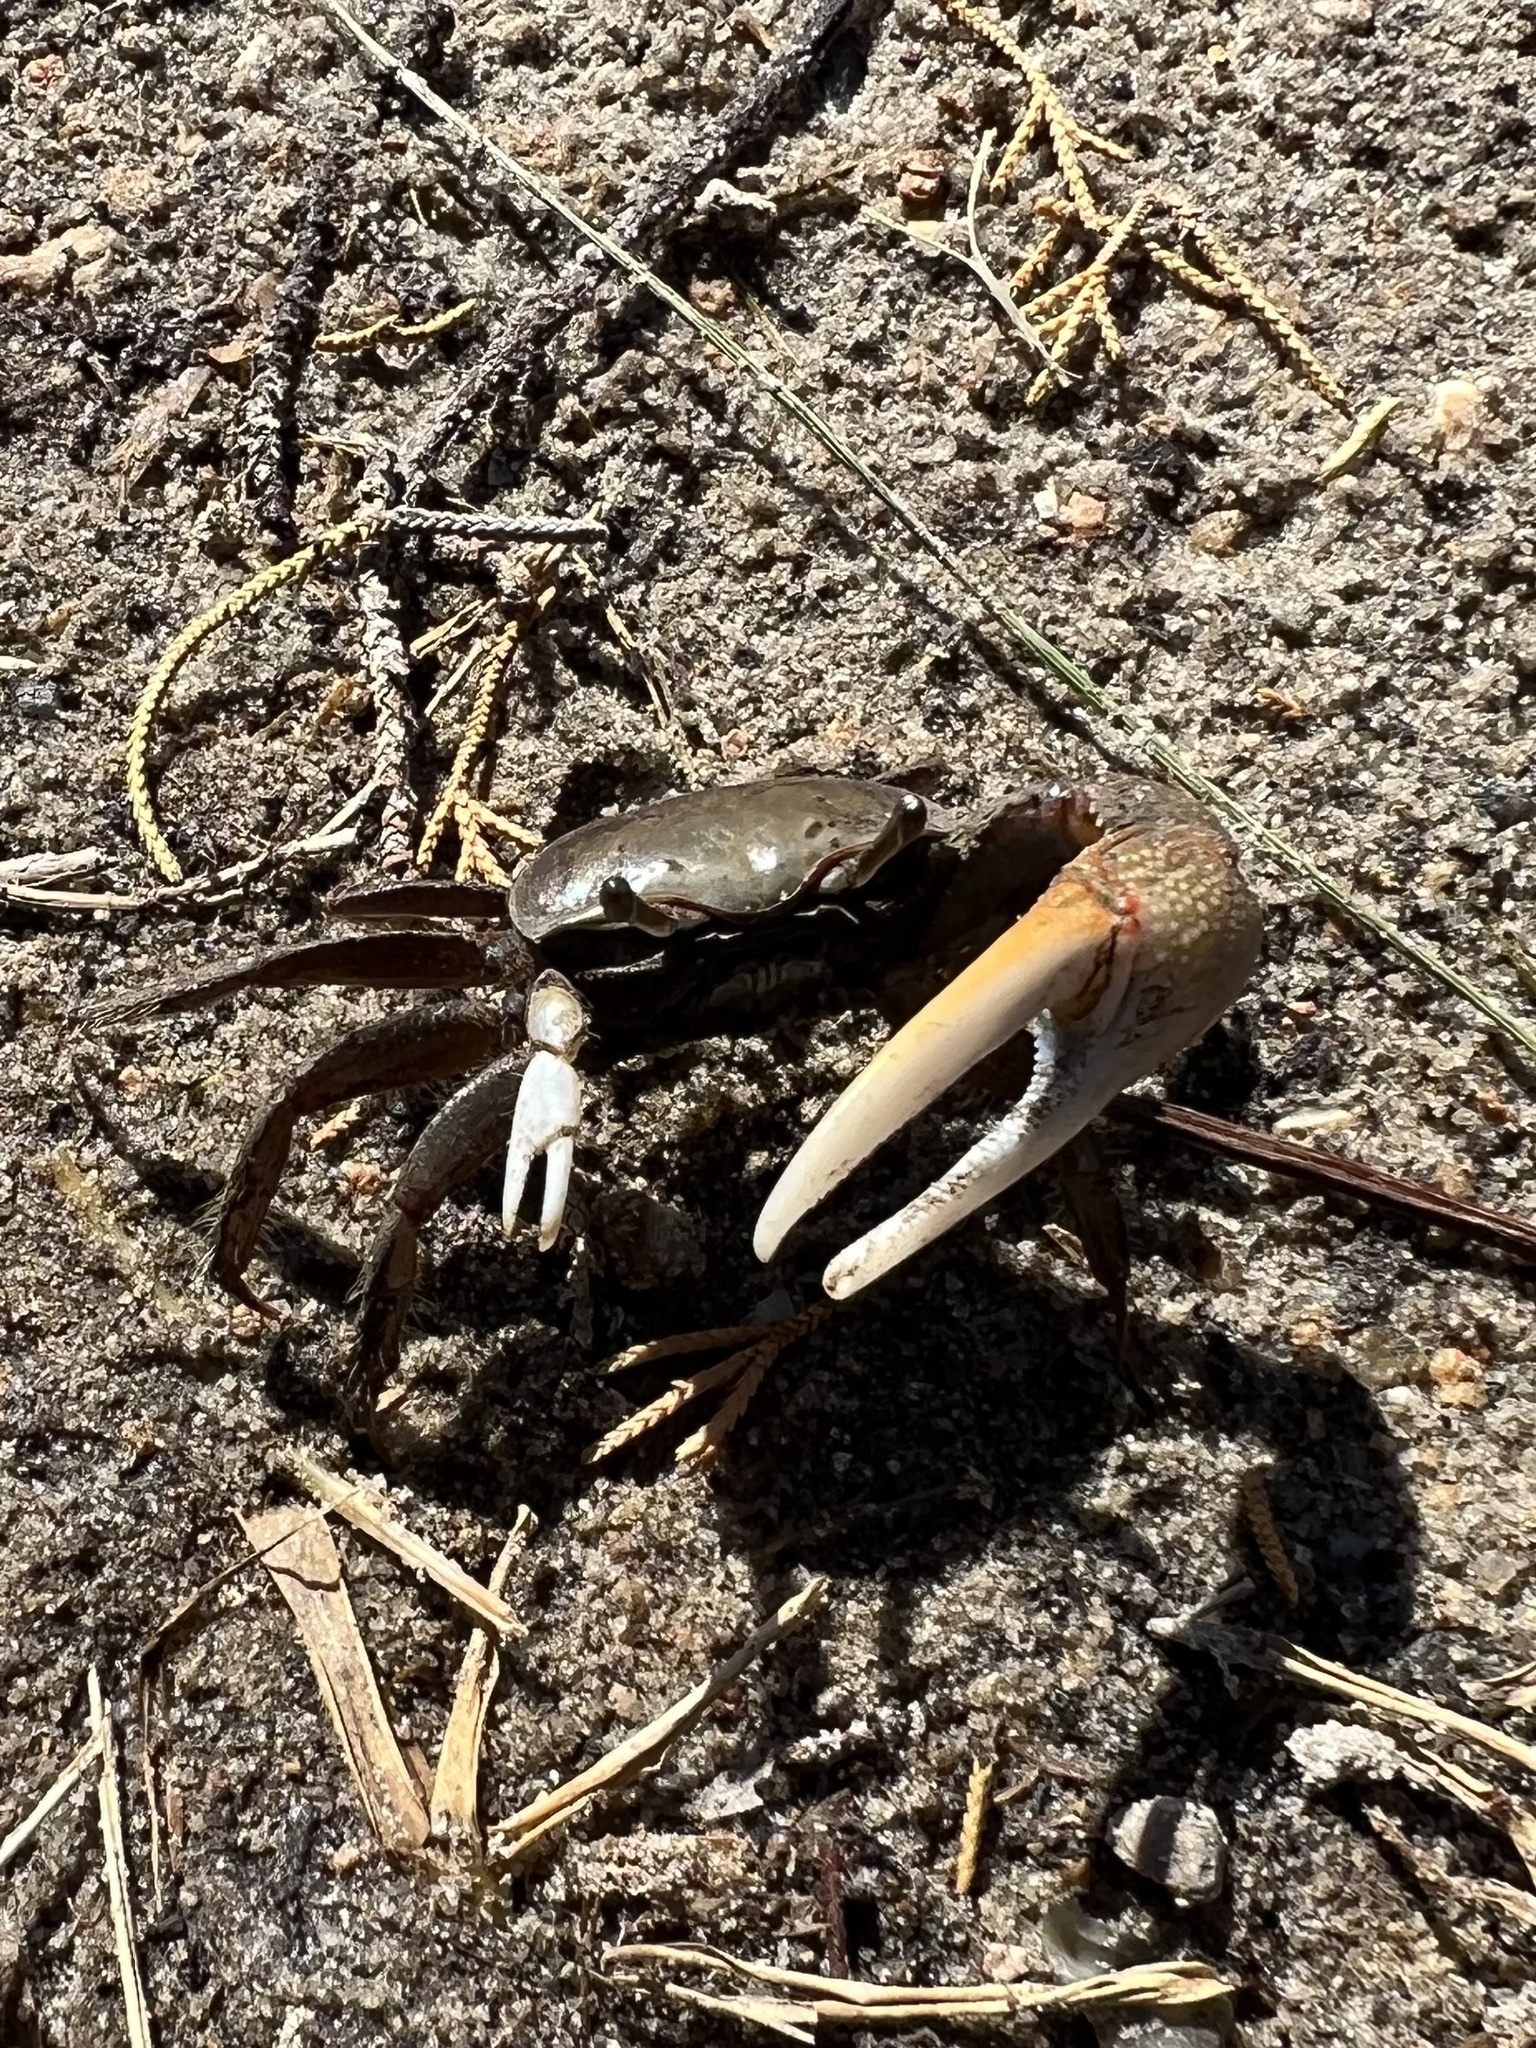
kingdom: Animalia
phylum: Arthropoda
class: Malacostraca
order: Decapoda
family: Ocypodidae
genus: Minuca
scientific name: Minuca minax
